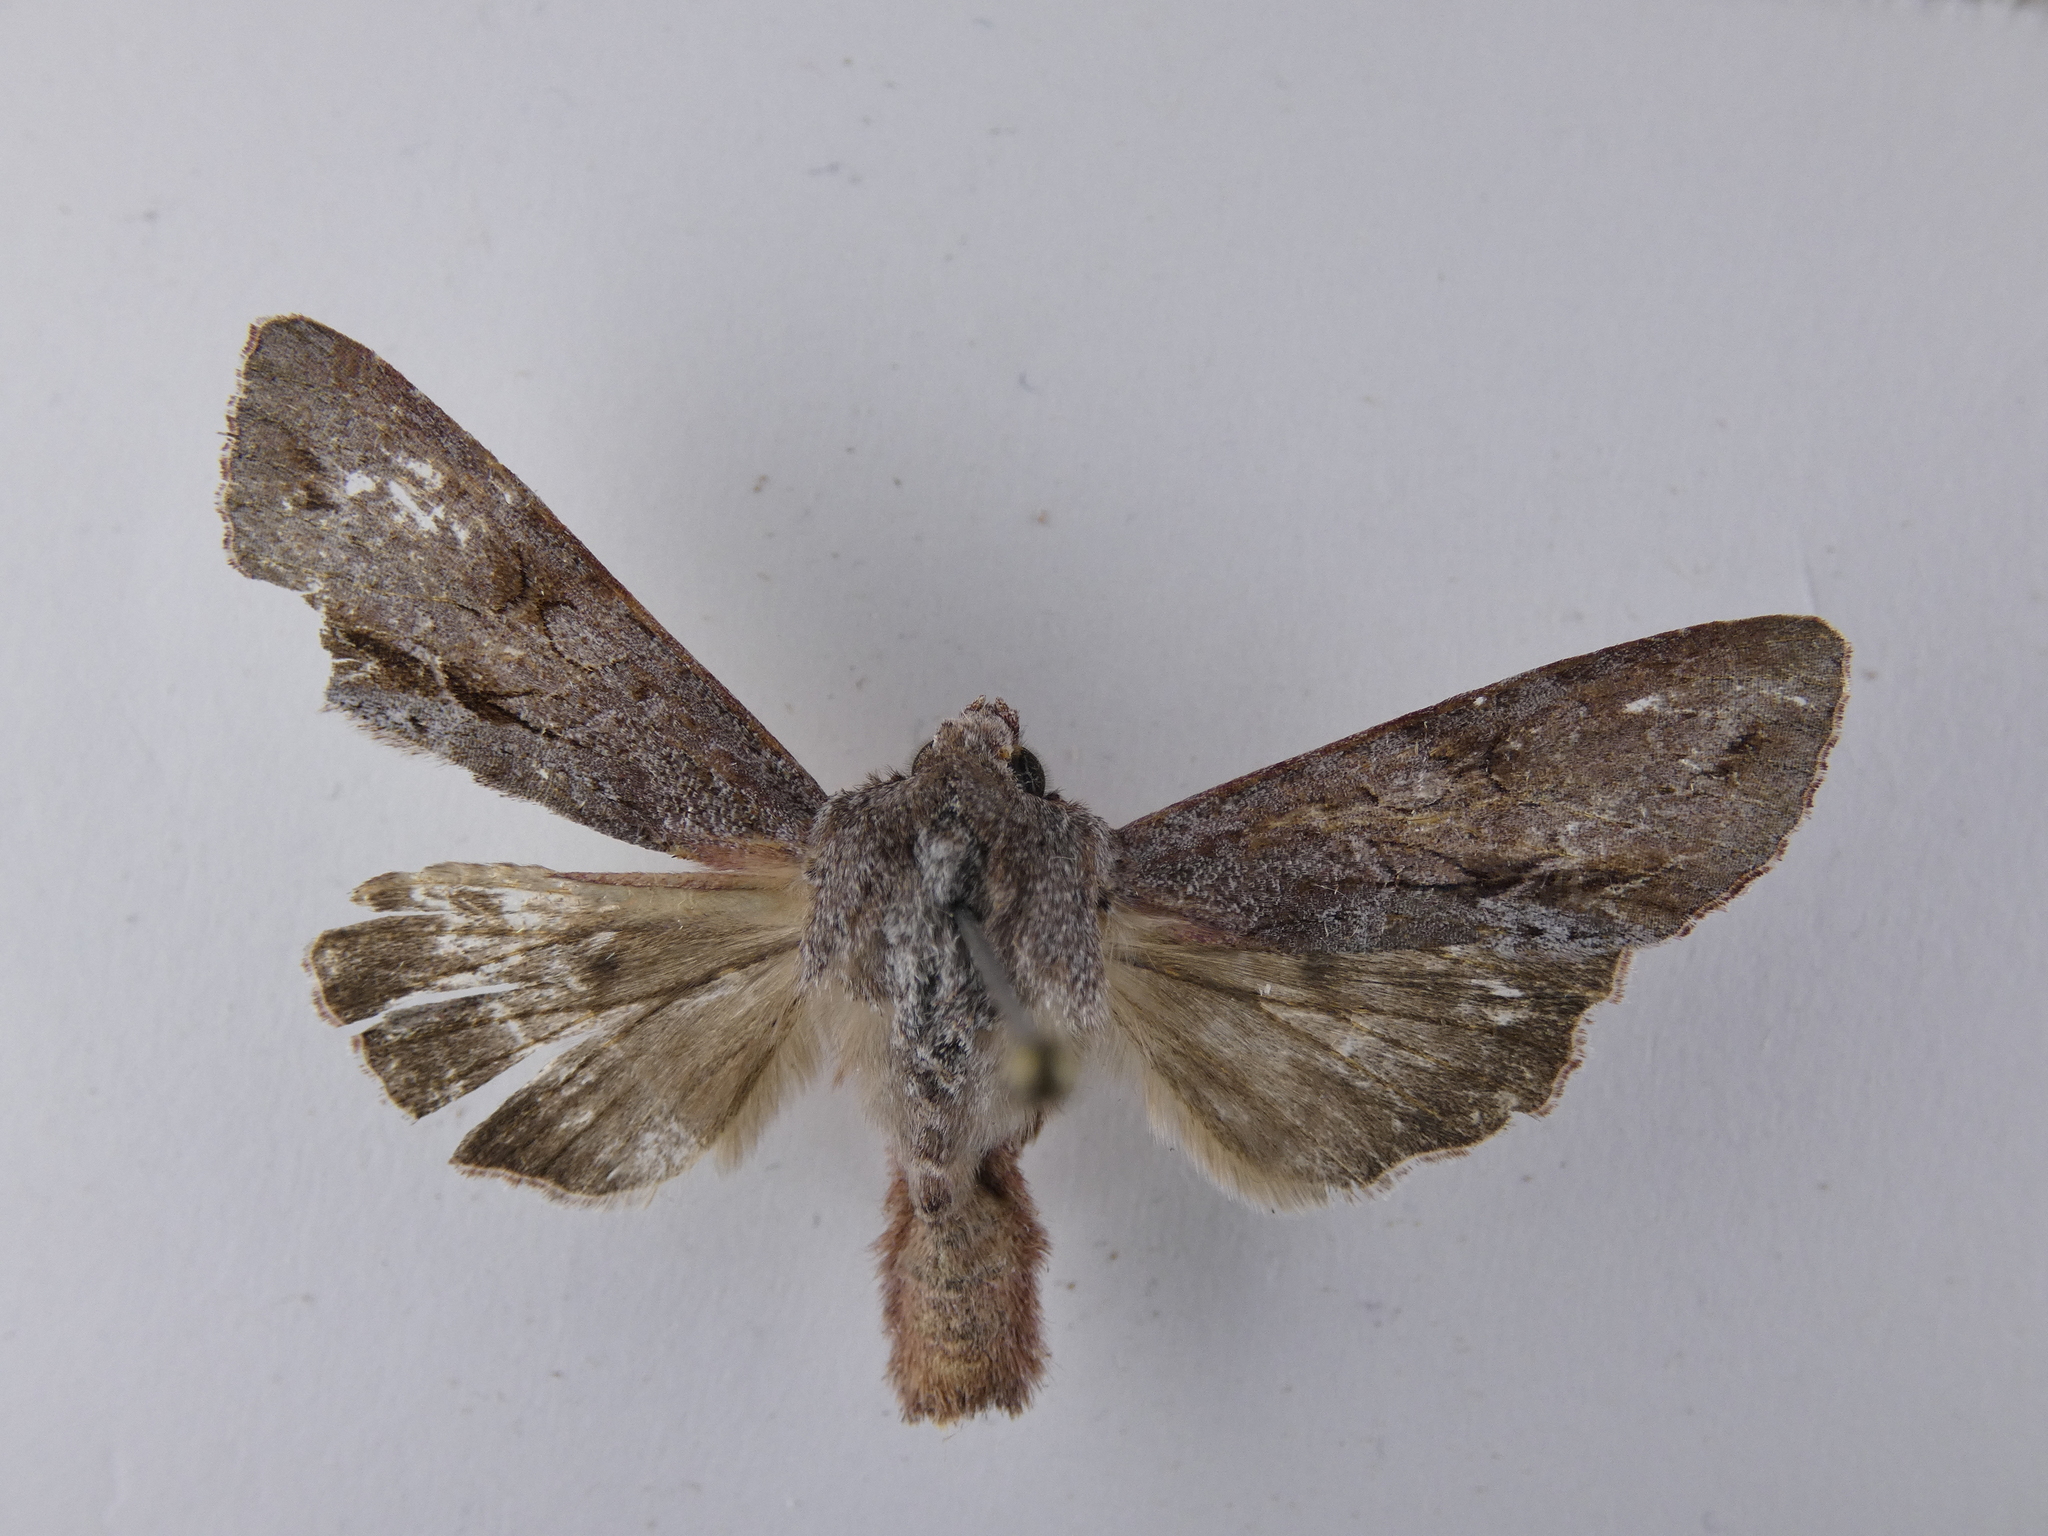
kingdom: Animalia
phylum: Arthropoda
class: Insecta
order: Lepidoptera
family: Noctuidae
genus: Ichneutica
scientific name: Ichneutica
